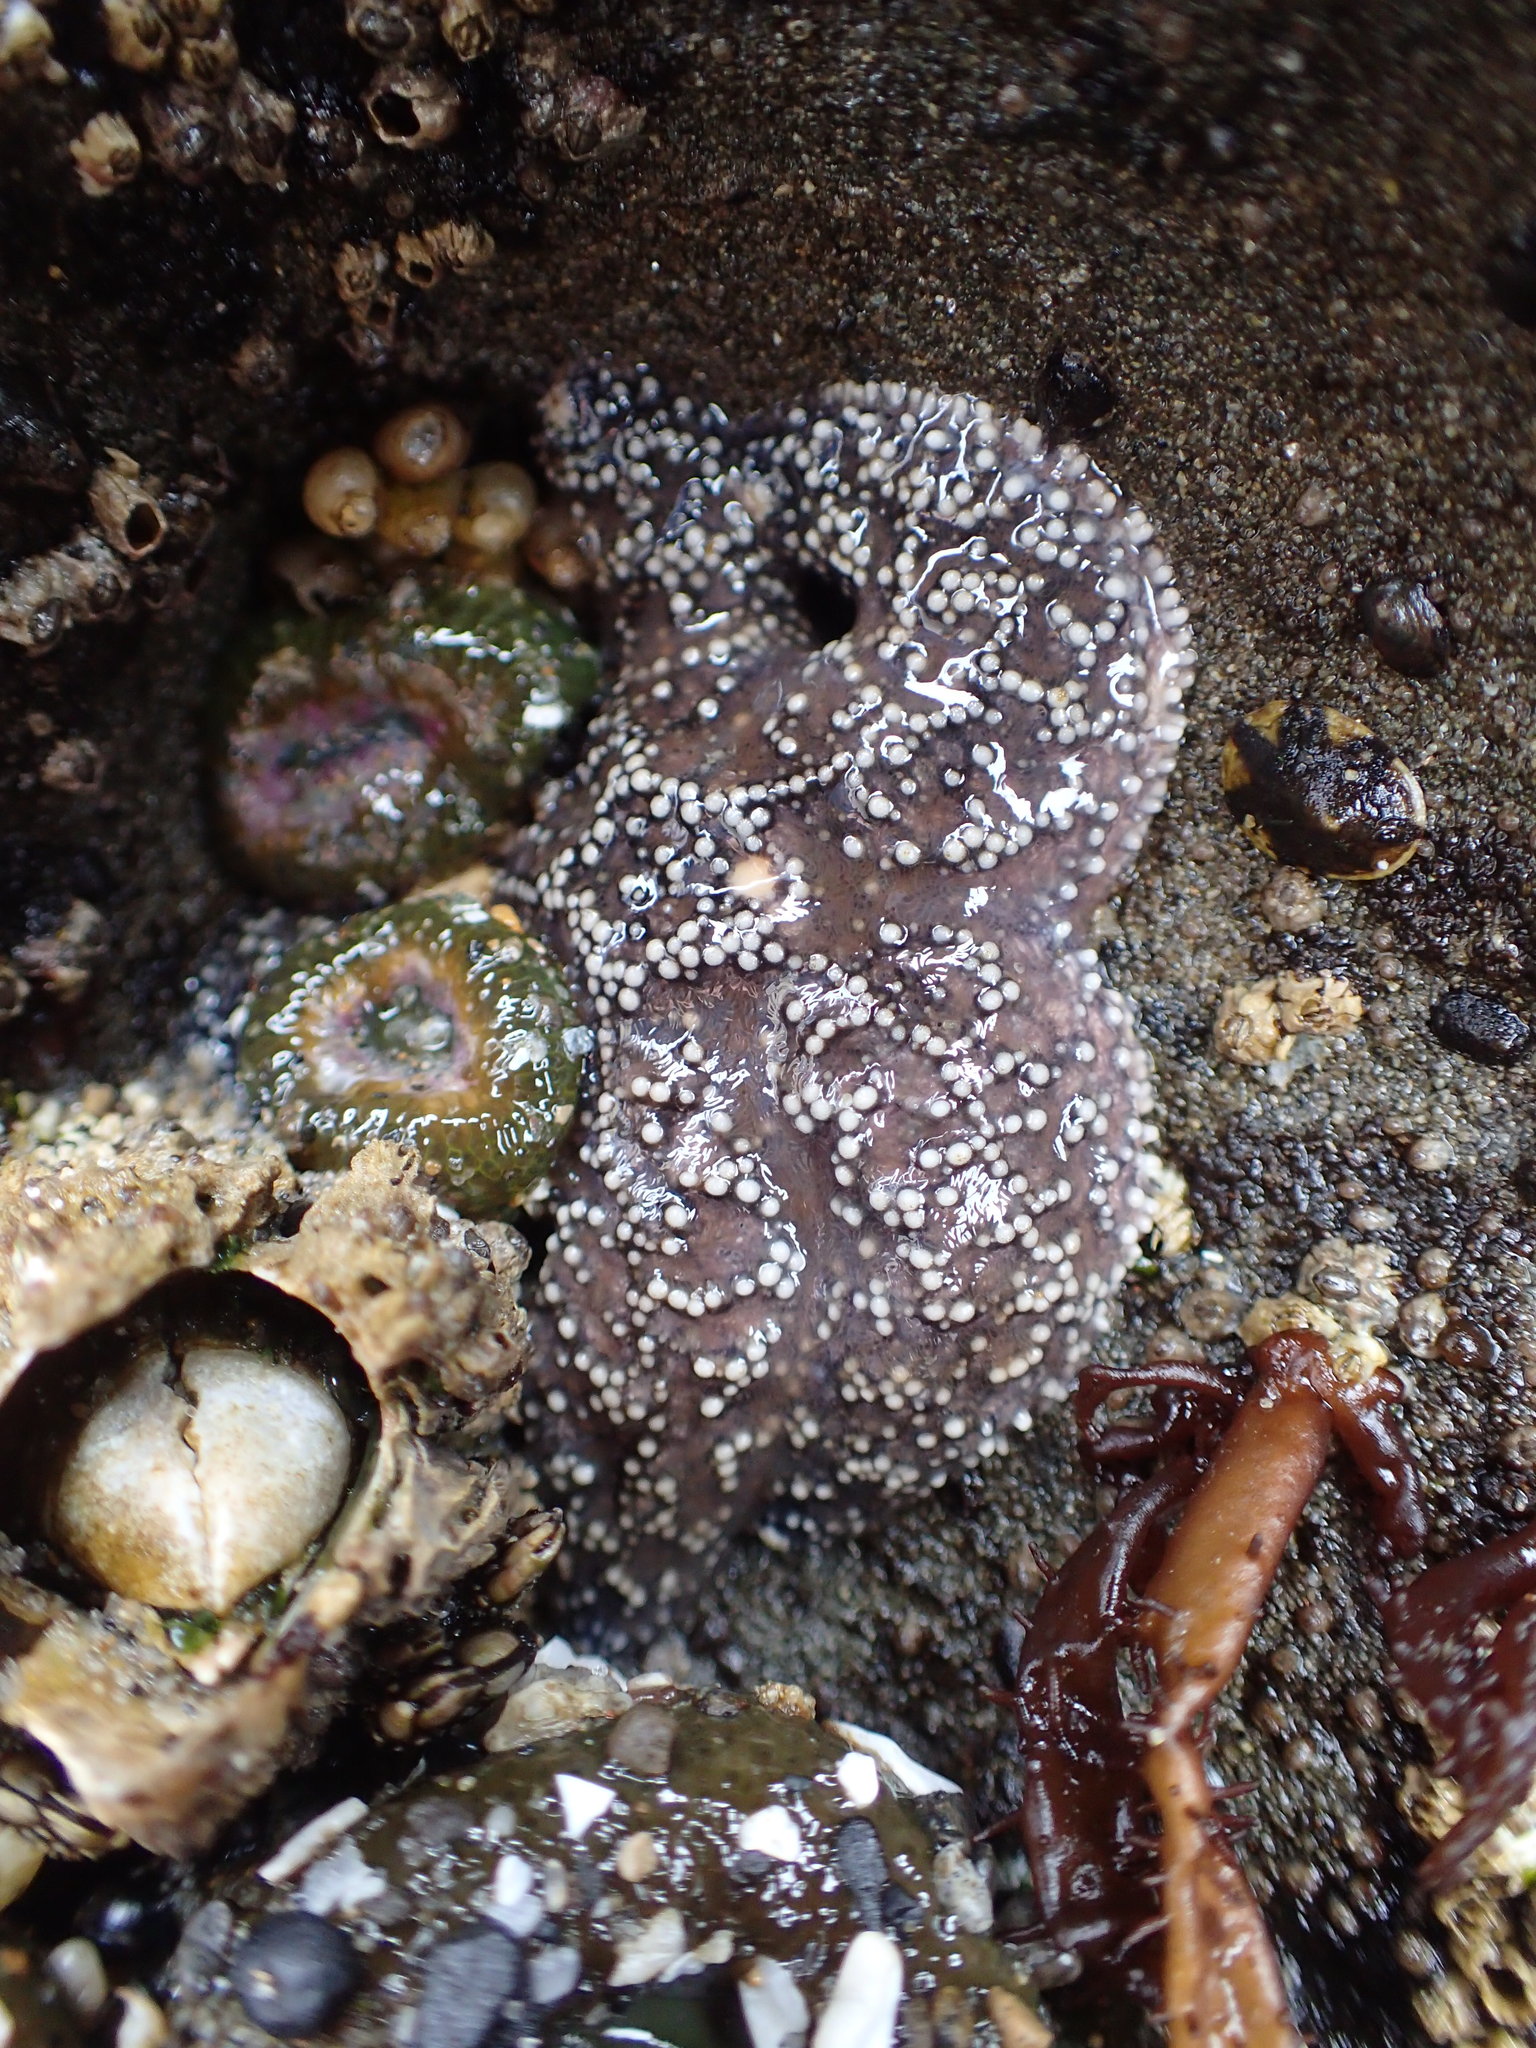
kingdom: Animalia
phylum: Echinodermata
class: Asteroidea
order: Forcipulatida
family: Asteriidae
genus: Pisaster
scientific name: Pisaster ochraceus
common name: Ochre stars
